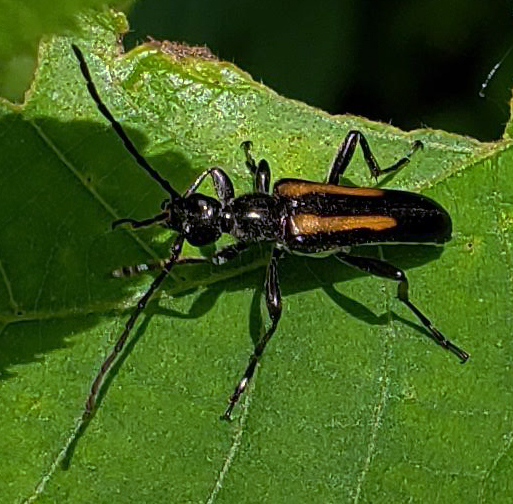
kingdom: Animalia
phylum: Arthropoda
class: Insecta
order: Coleoptera
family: Cerambycidae
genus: Strangalepta
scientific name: Strangalepta abbreviata
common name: Strangalepta flower longhorn beetle
